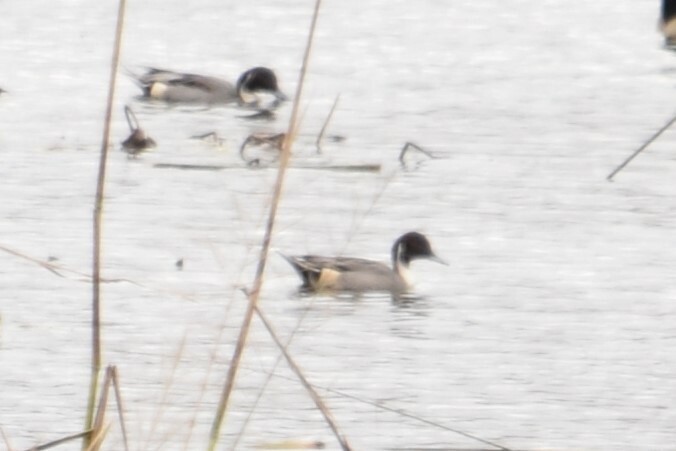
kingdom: Animalia
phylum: Chordata
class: Aves
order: Anseriformes
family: Anatidae
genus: Anas
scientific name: Anas acuta
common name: Northern pintail
